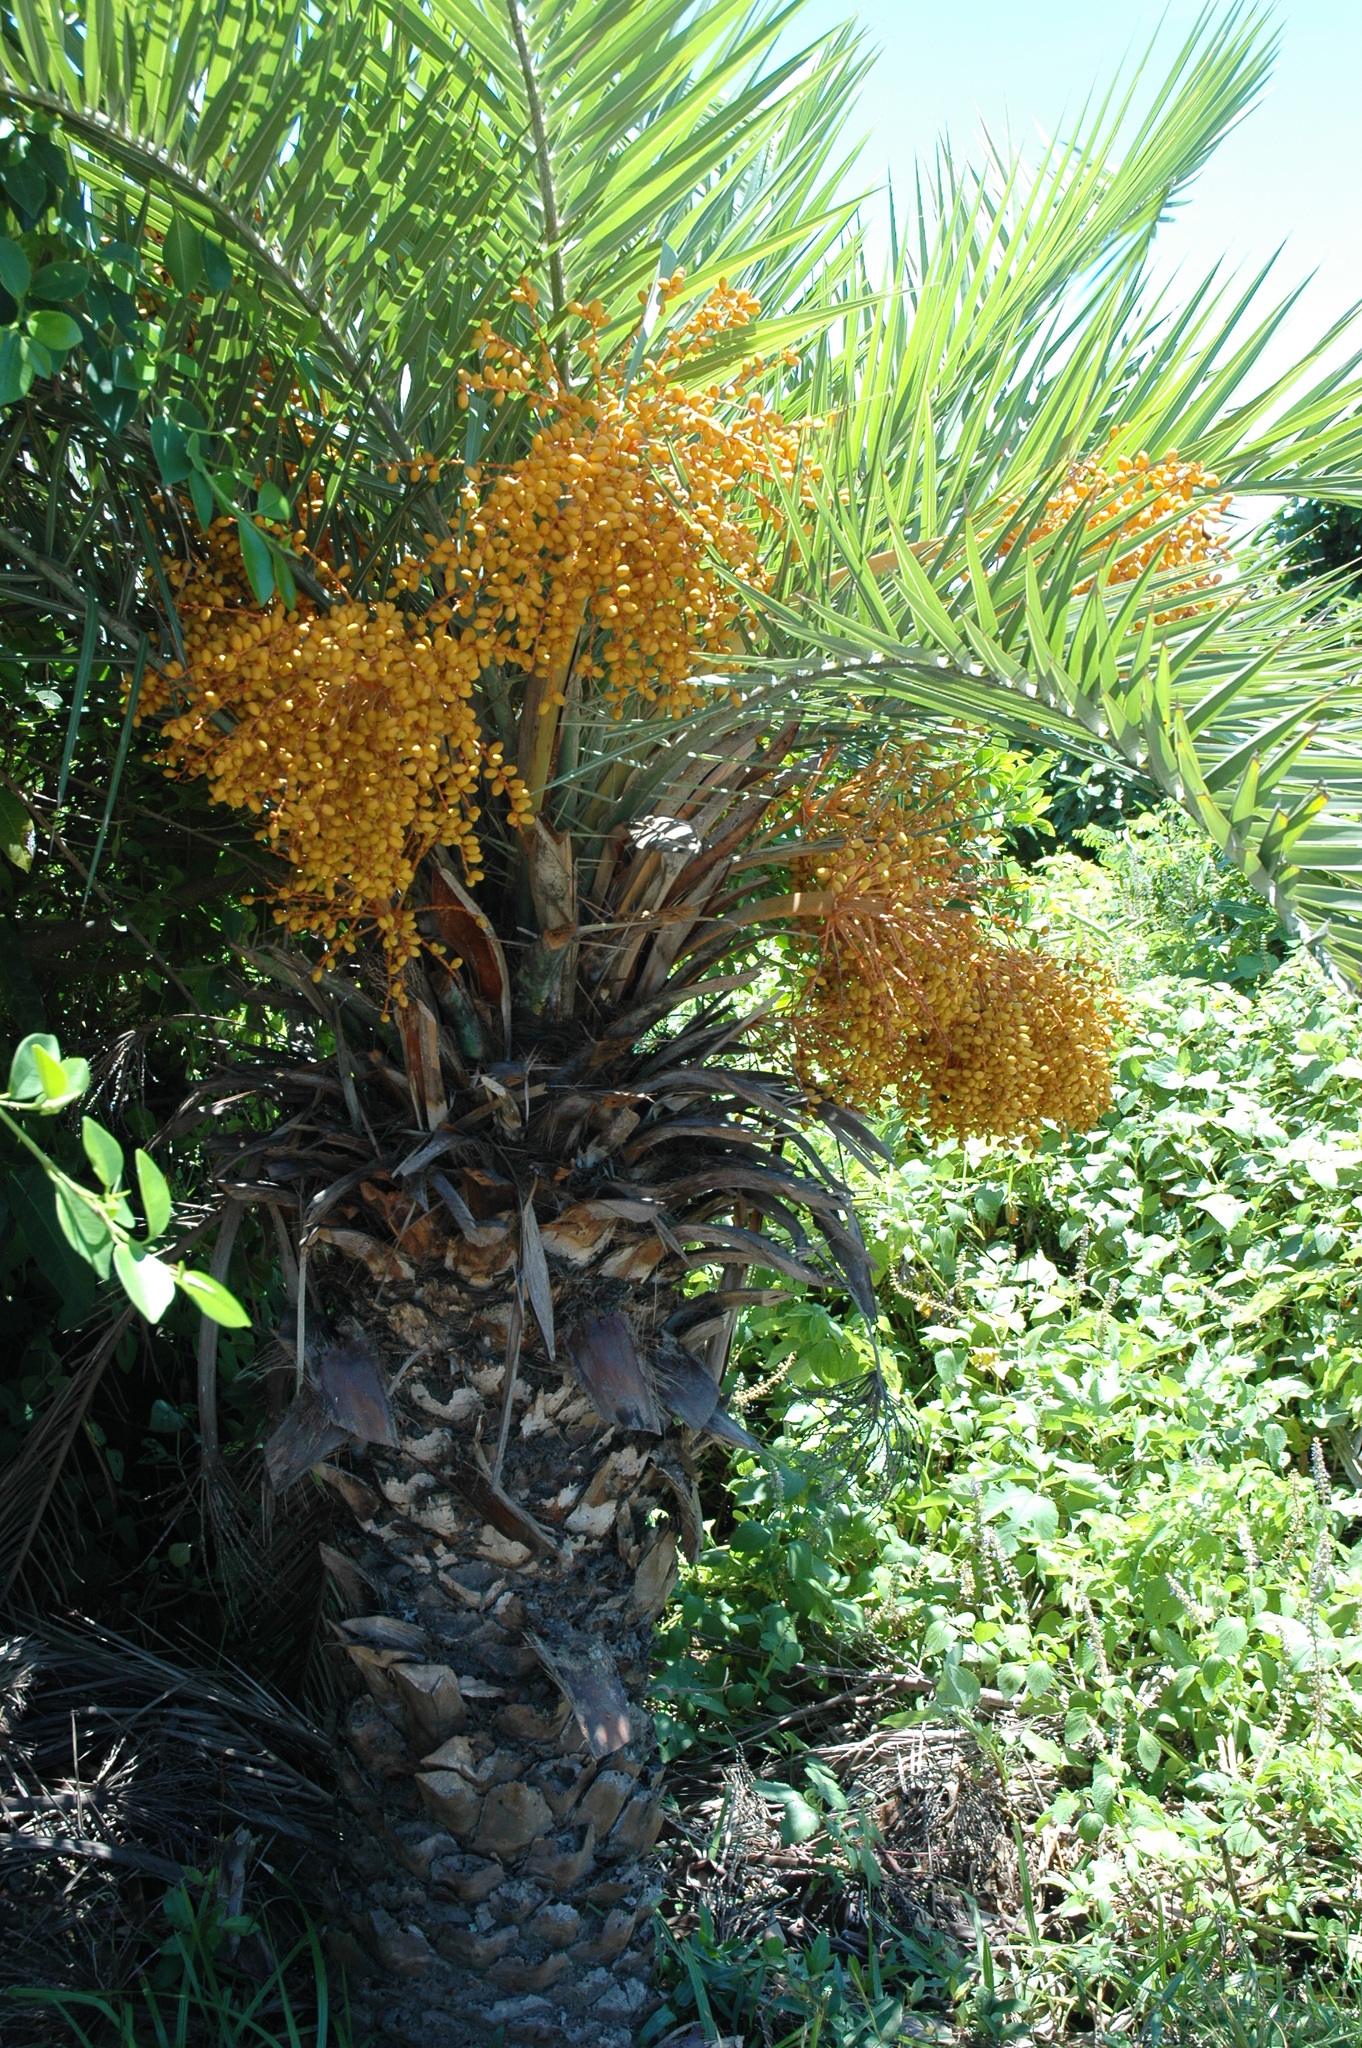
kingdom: Plantae
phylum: Tracheophyta
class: Liliopsida
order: Arecales
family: Arecaceae
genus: Phoenix
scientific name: Phoenix loureiroi
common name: Loureiro's palm
